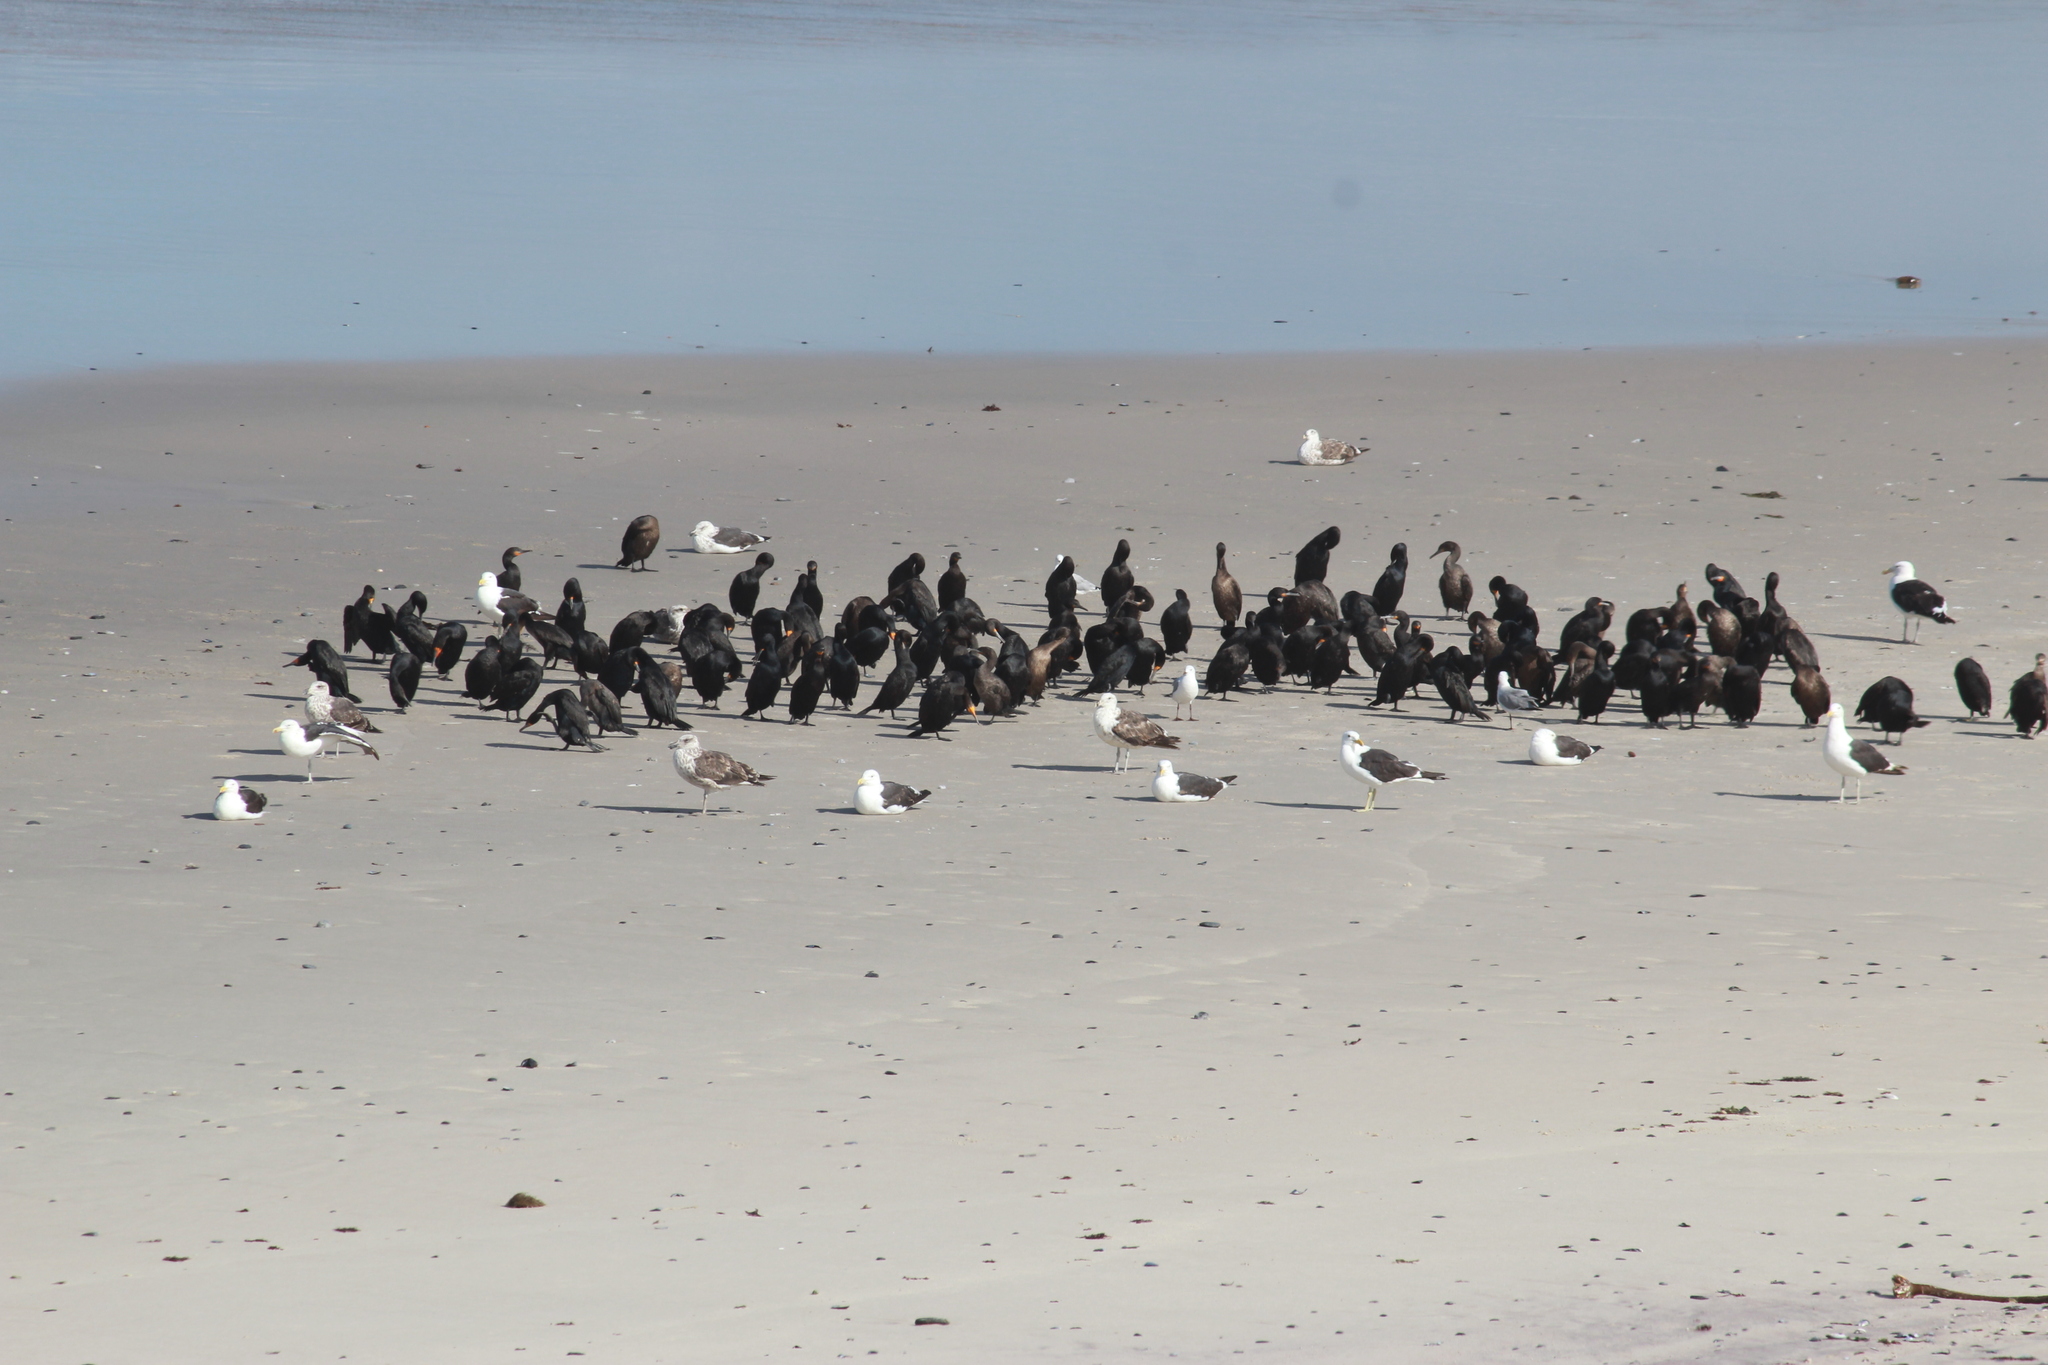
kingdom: Animalia
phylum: Chordata
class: Aves
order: Suliformes
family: Phalacrocoracidae
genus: Phalacrocorax
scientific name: Phalacrocorax capensis
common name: Cape cormorant
